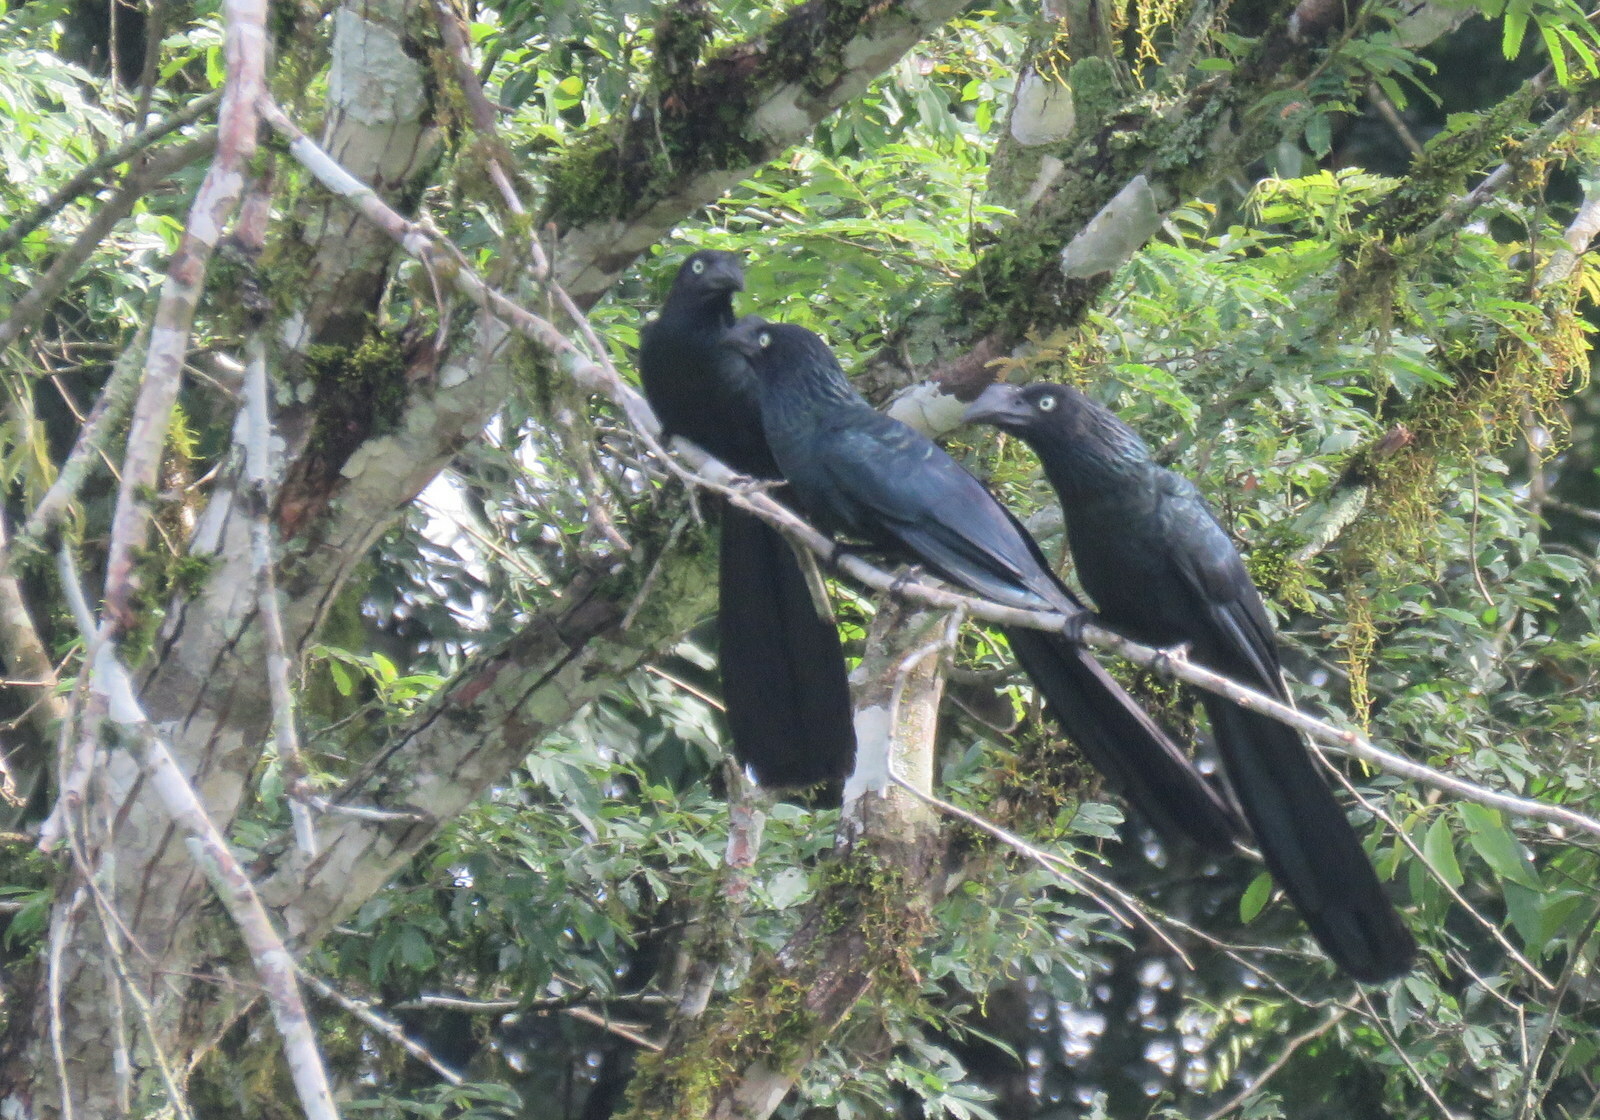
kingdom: Animalia
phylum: Chordata
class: Aves
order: Cuculiformes
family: Cuculidae
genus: Crotophaga
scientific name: Crotophaga major
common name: Greater ani
